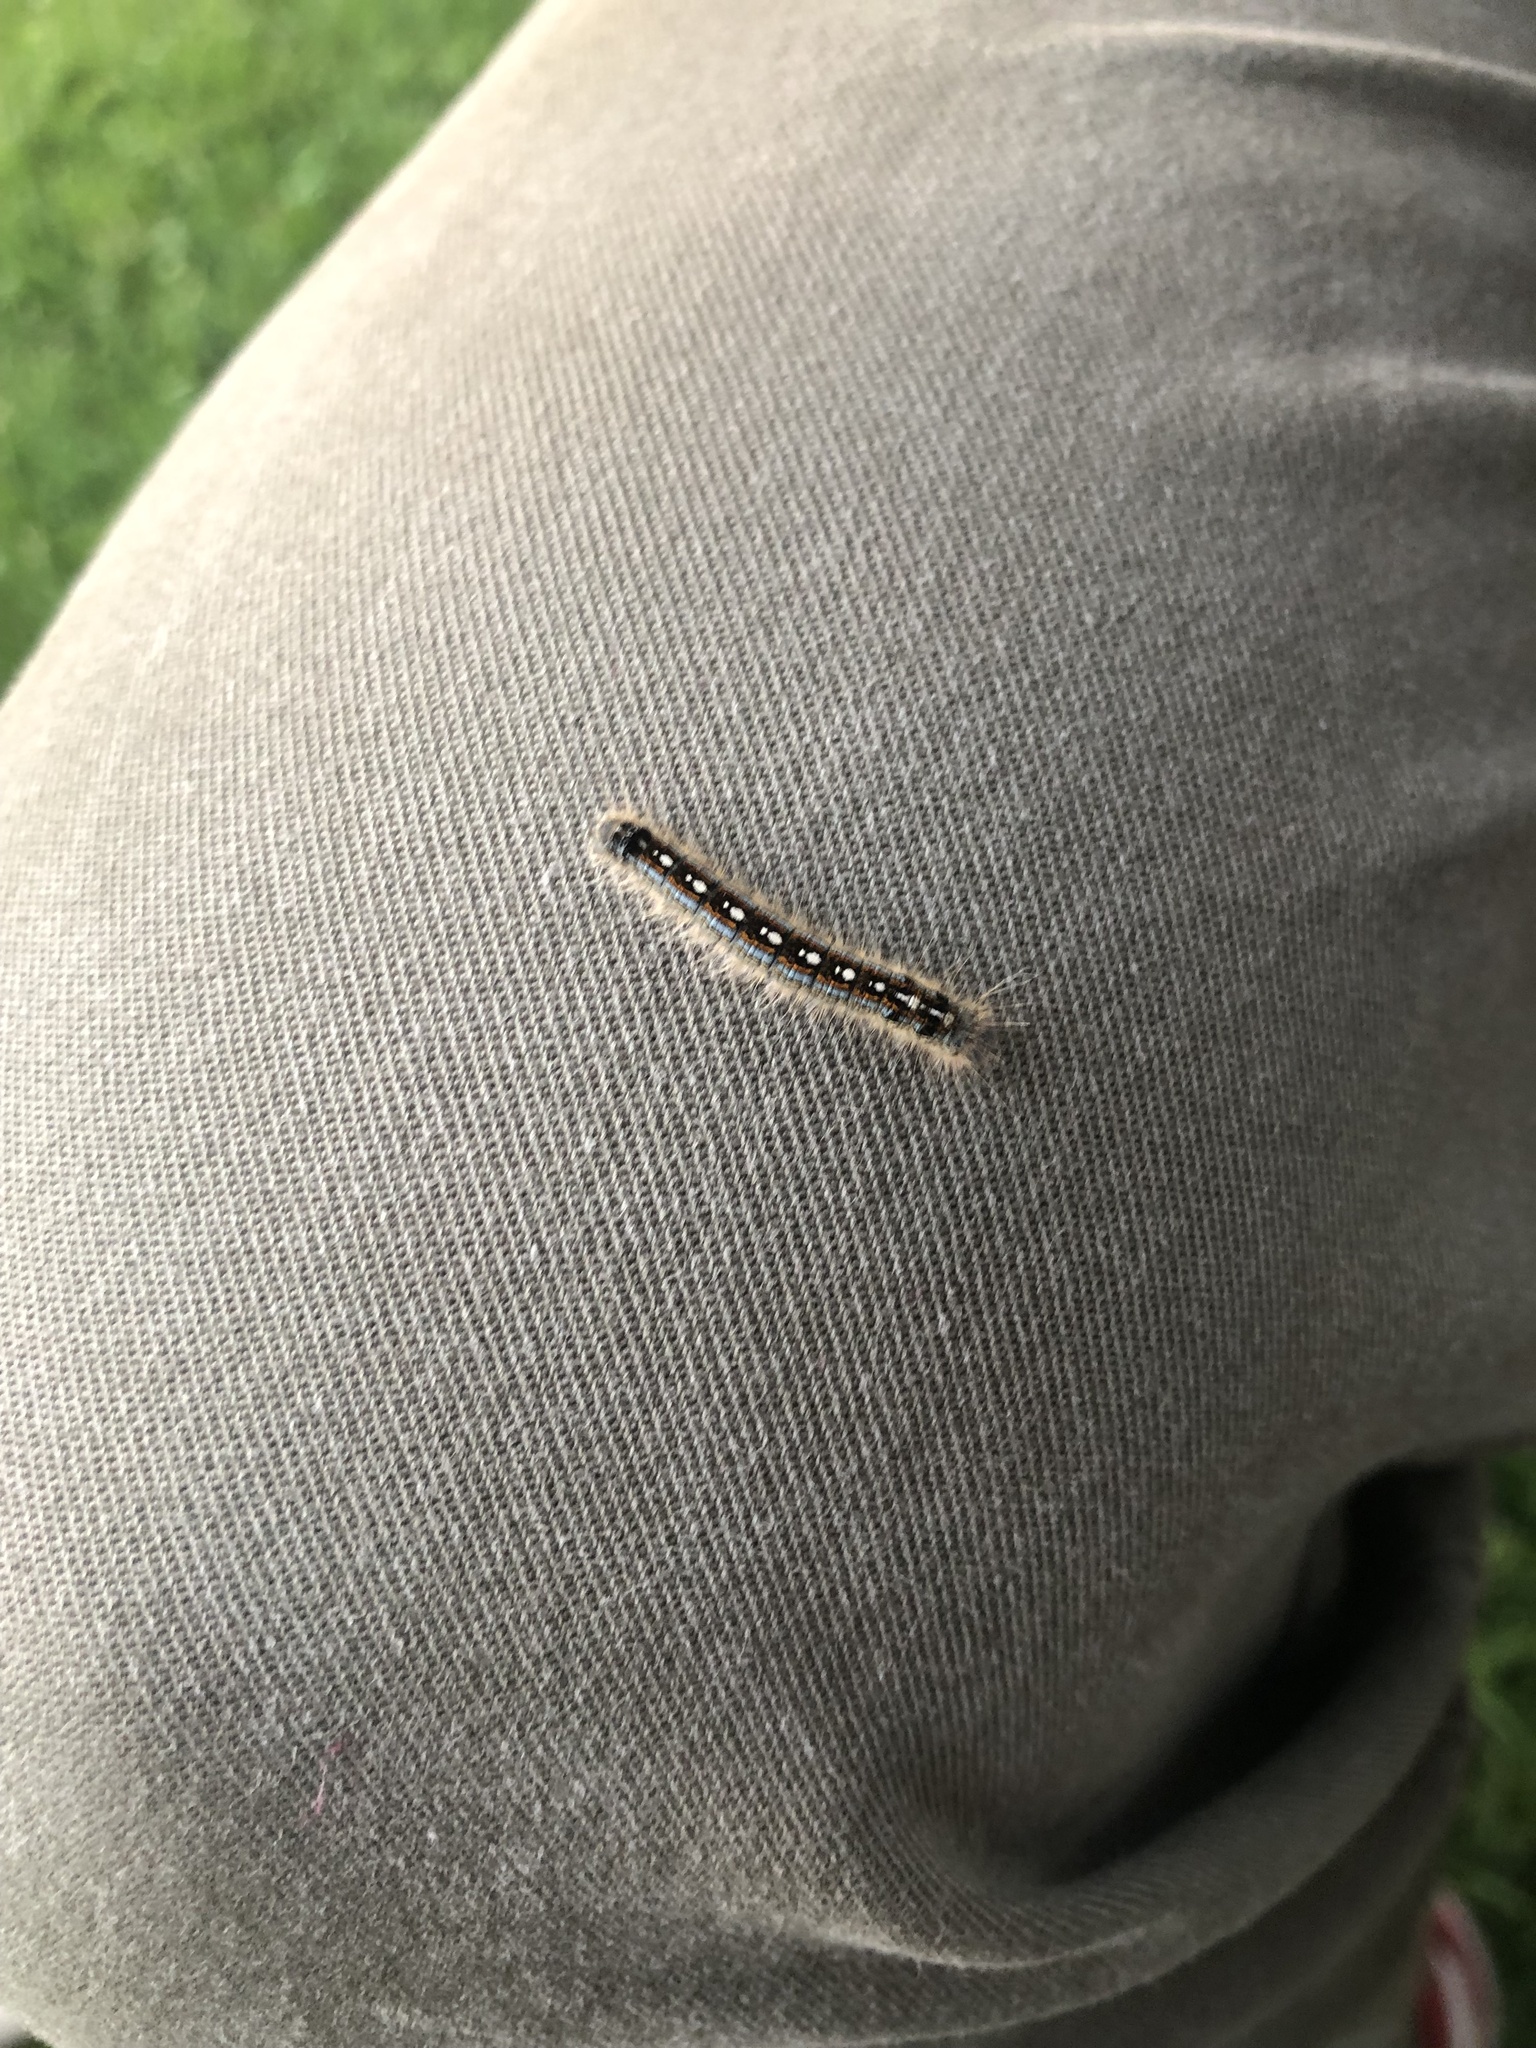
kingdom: Animalia
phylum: Arthropoda
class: Insecta
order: Lepidoptera
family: Lasiocampidae
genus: Malacosoma
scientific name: Malacosoma disstria
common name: Forest tent caterpillar
